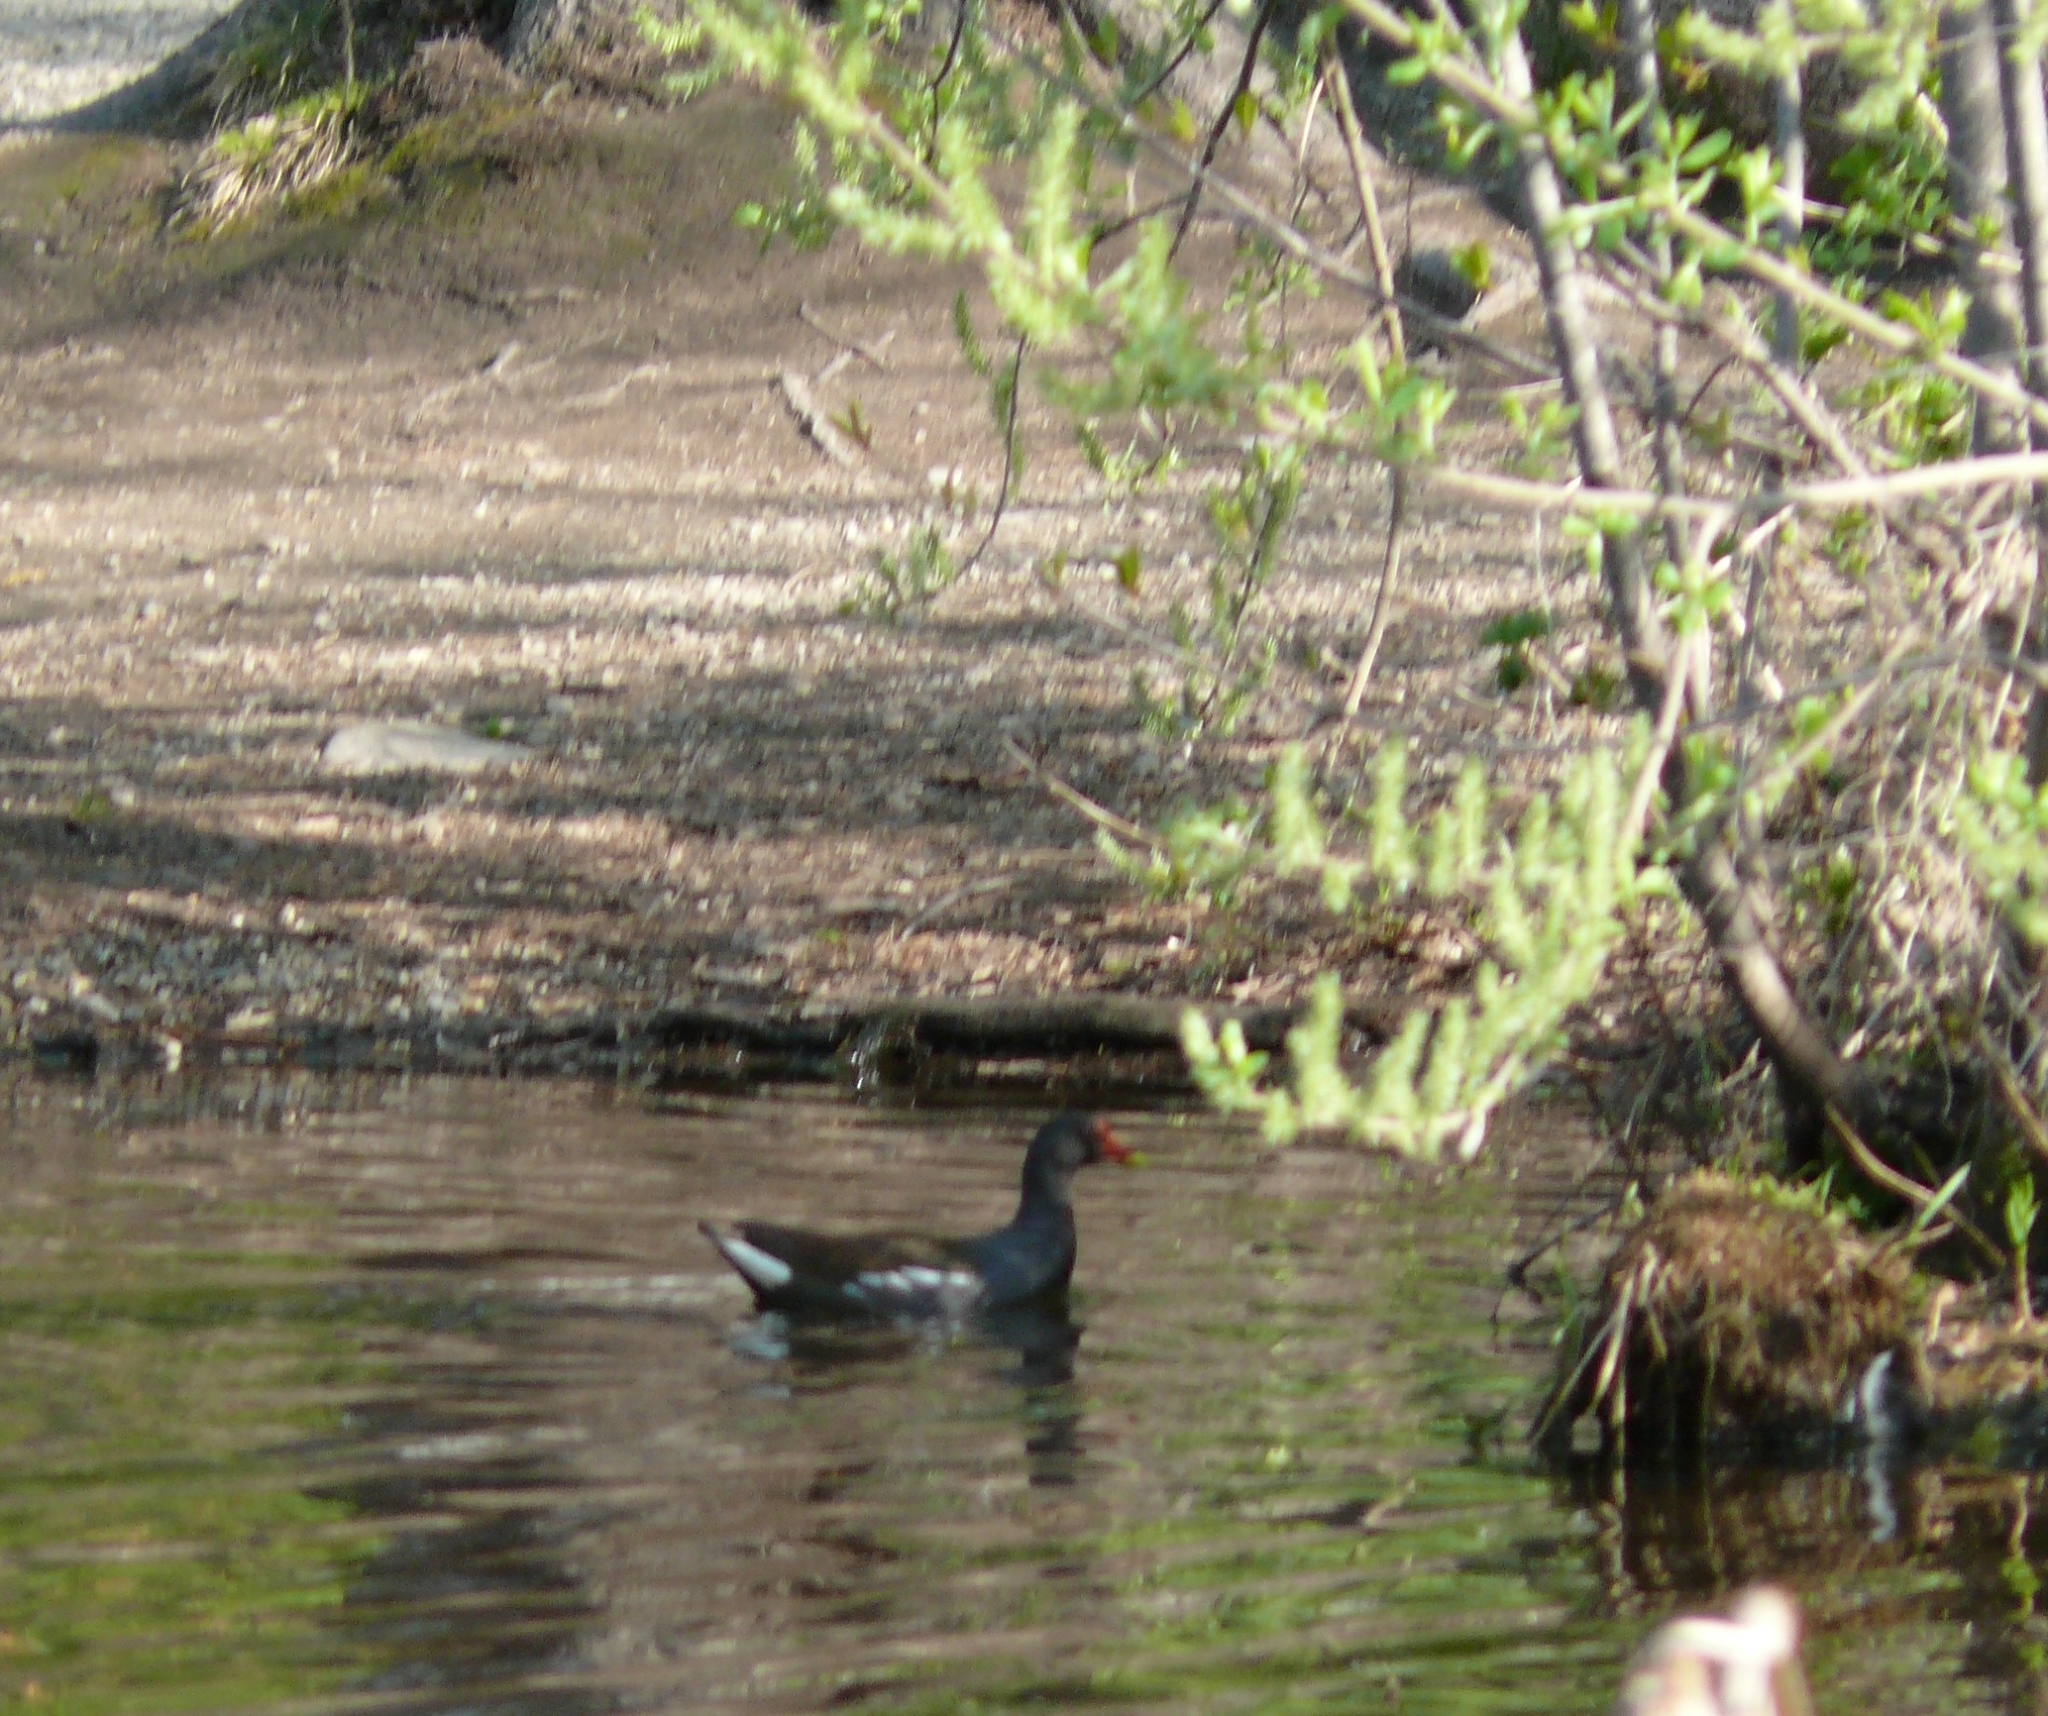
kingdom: Animalia
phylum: Chordata
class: Aves
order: Gruiformes
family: Rallidae
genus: Gallinula
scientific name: Gallinula chloropus
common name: Common moorhen
